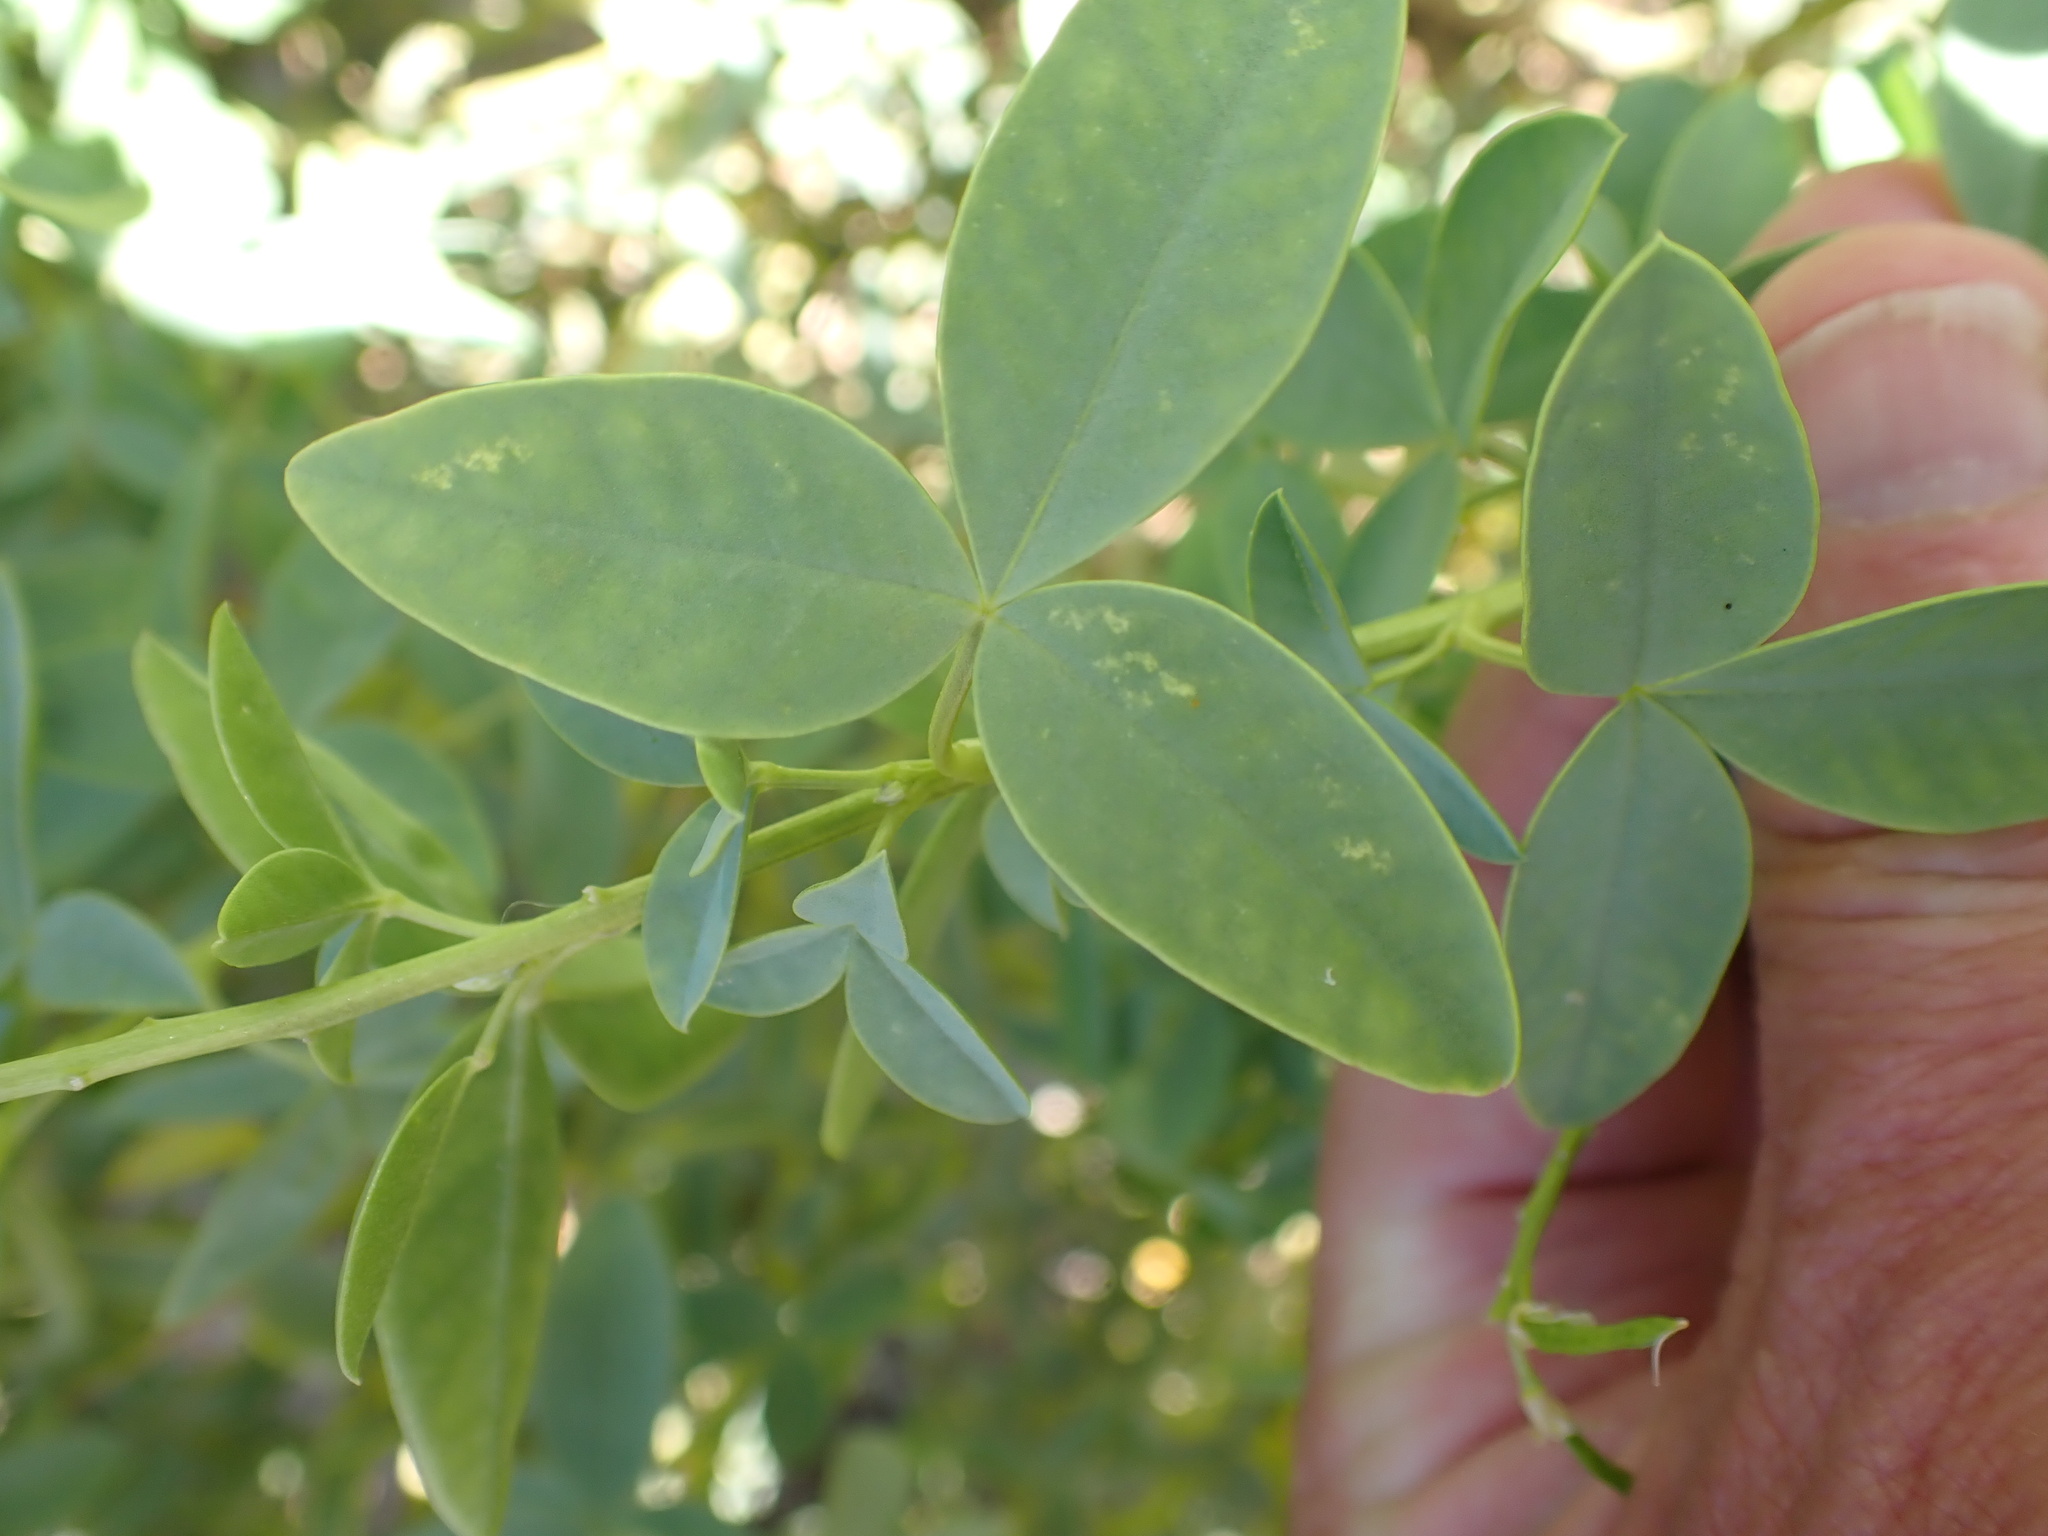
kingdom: Plantae
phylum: Tracheophyta
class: Magnoliopsida
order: Fabales
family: Fabaceae
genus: Adenocarpus
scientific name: Adenocarpus anagyrifolius
